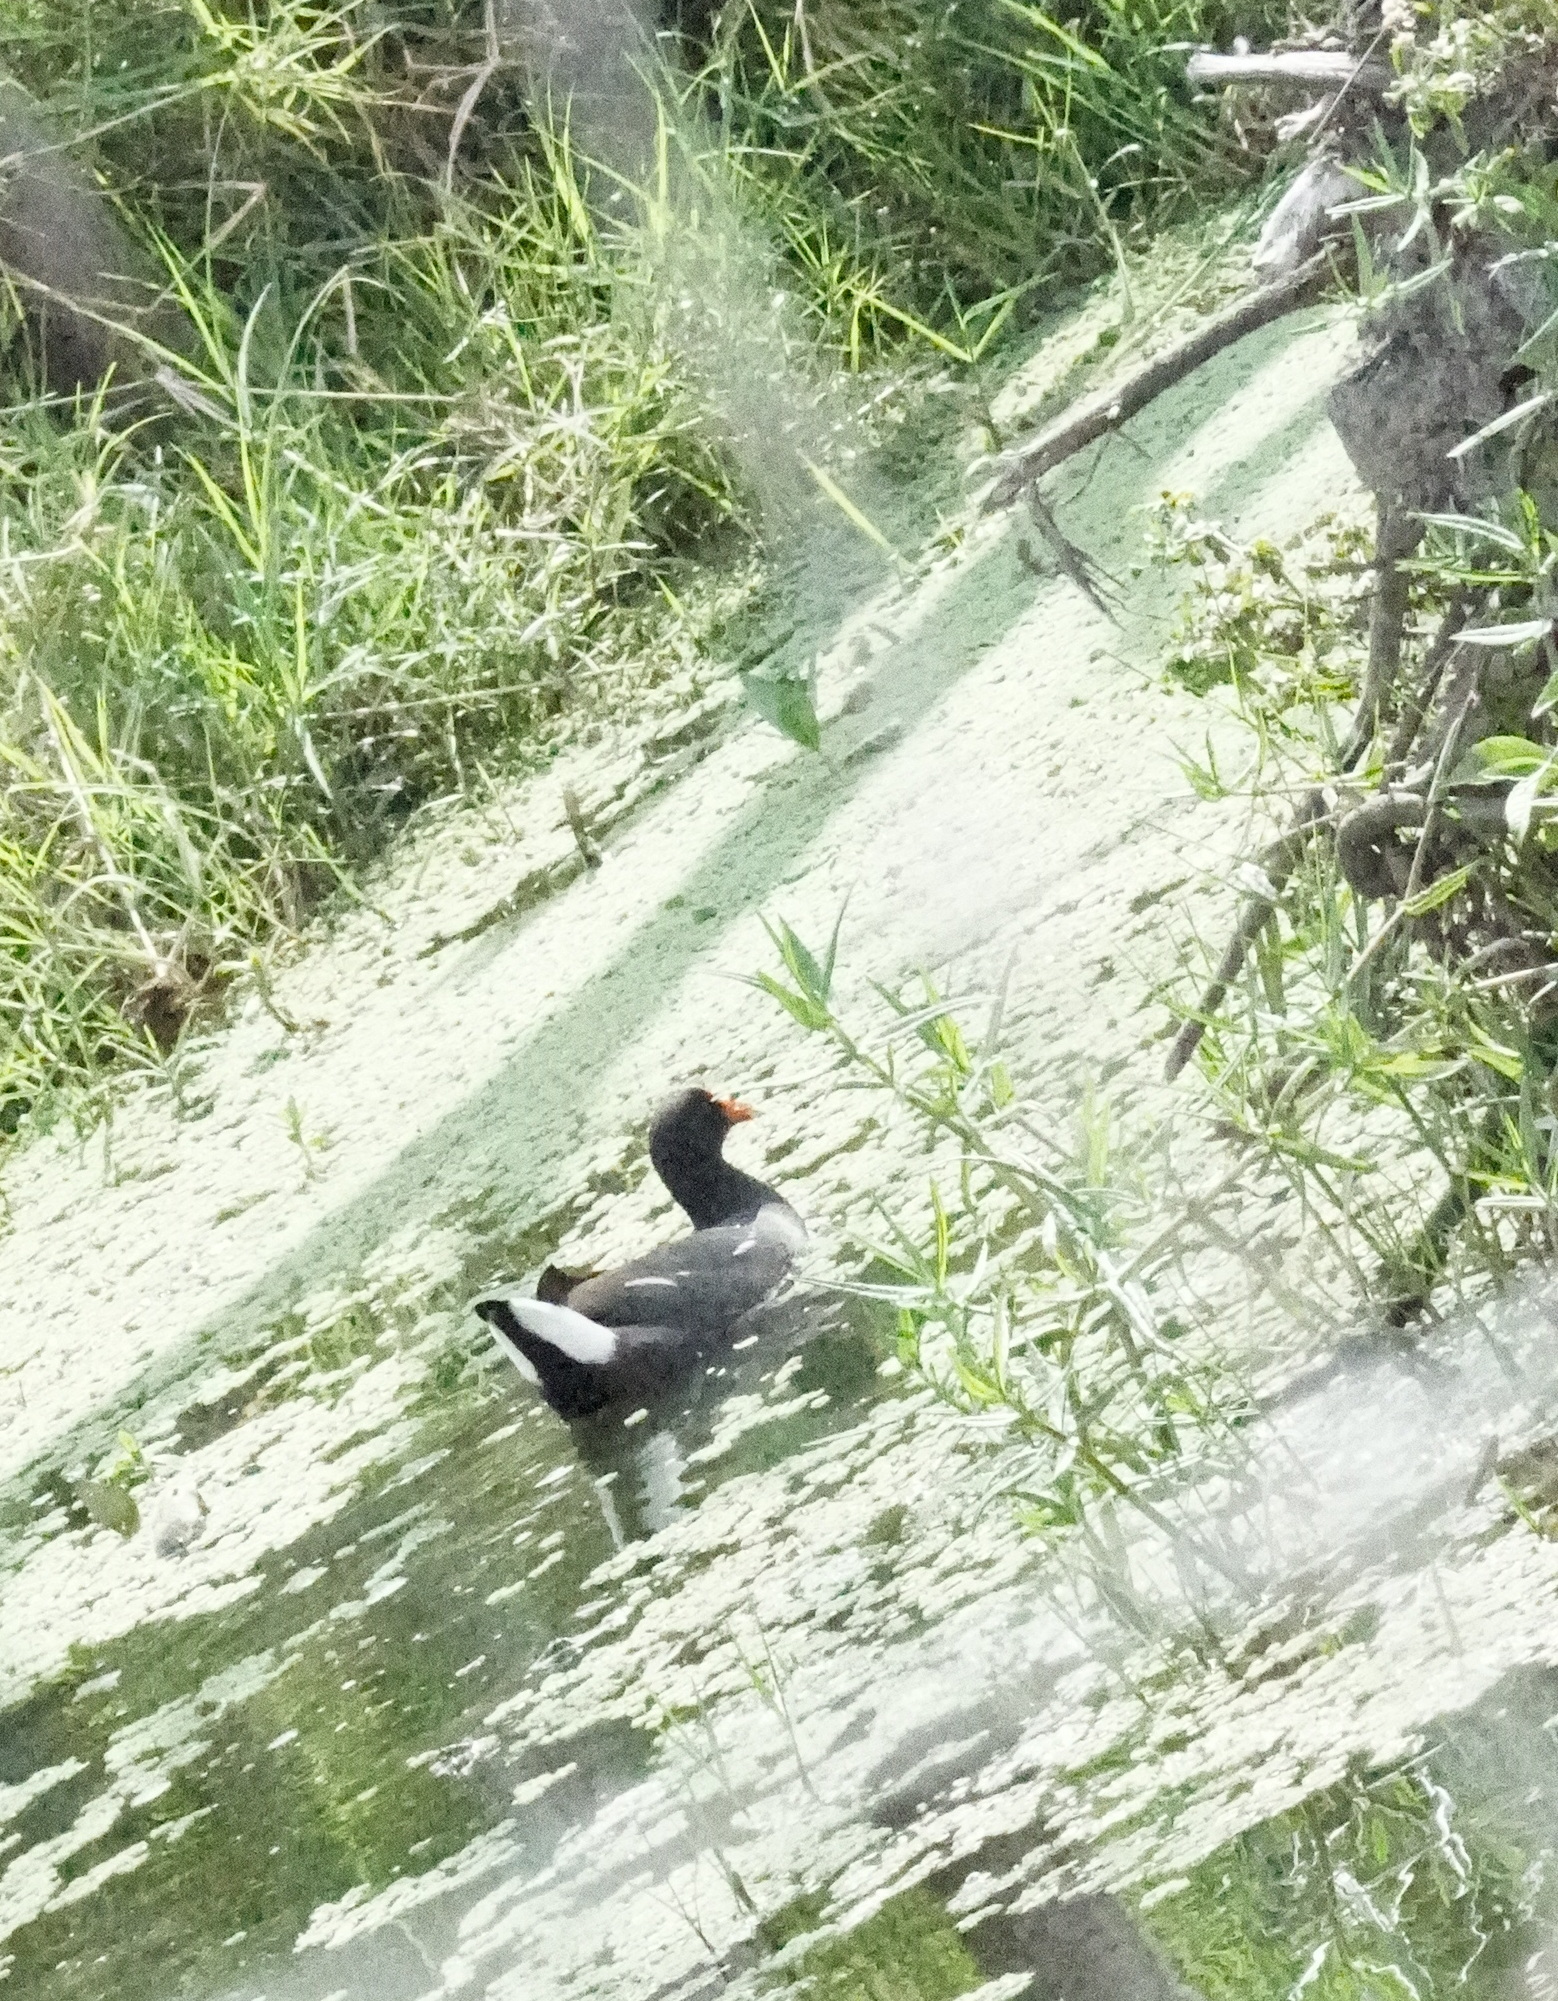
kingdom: Animalia
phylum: Chordata
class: Aves
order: Gruiformes
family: Rallidae
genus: Gallinula
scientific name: Gallinula chloropus
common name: Common moorhen
